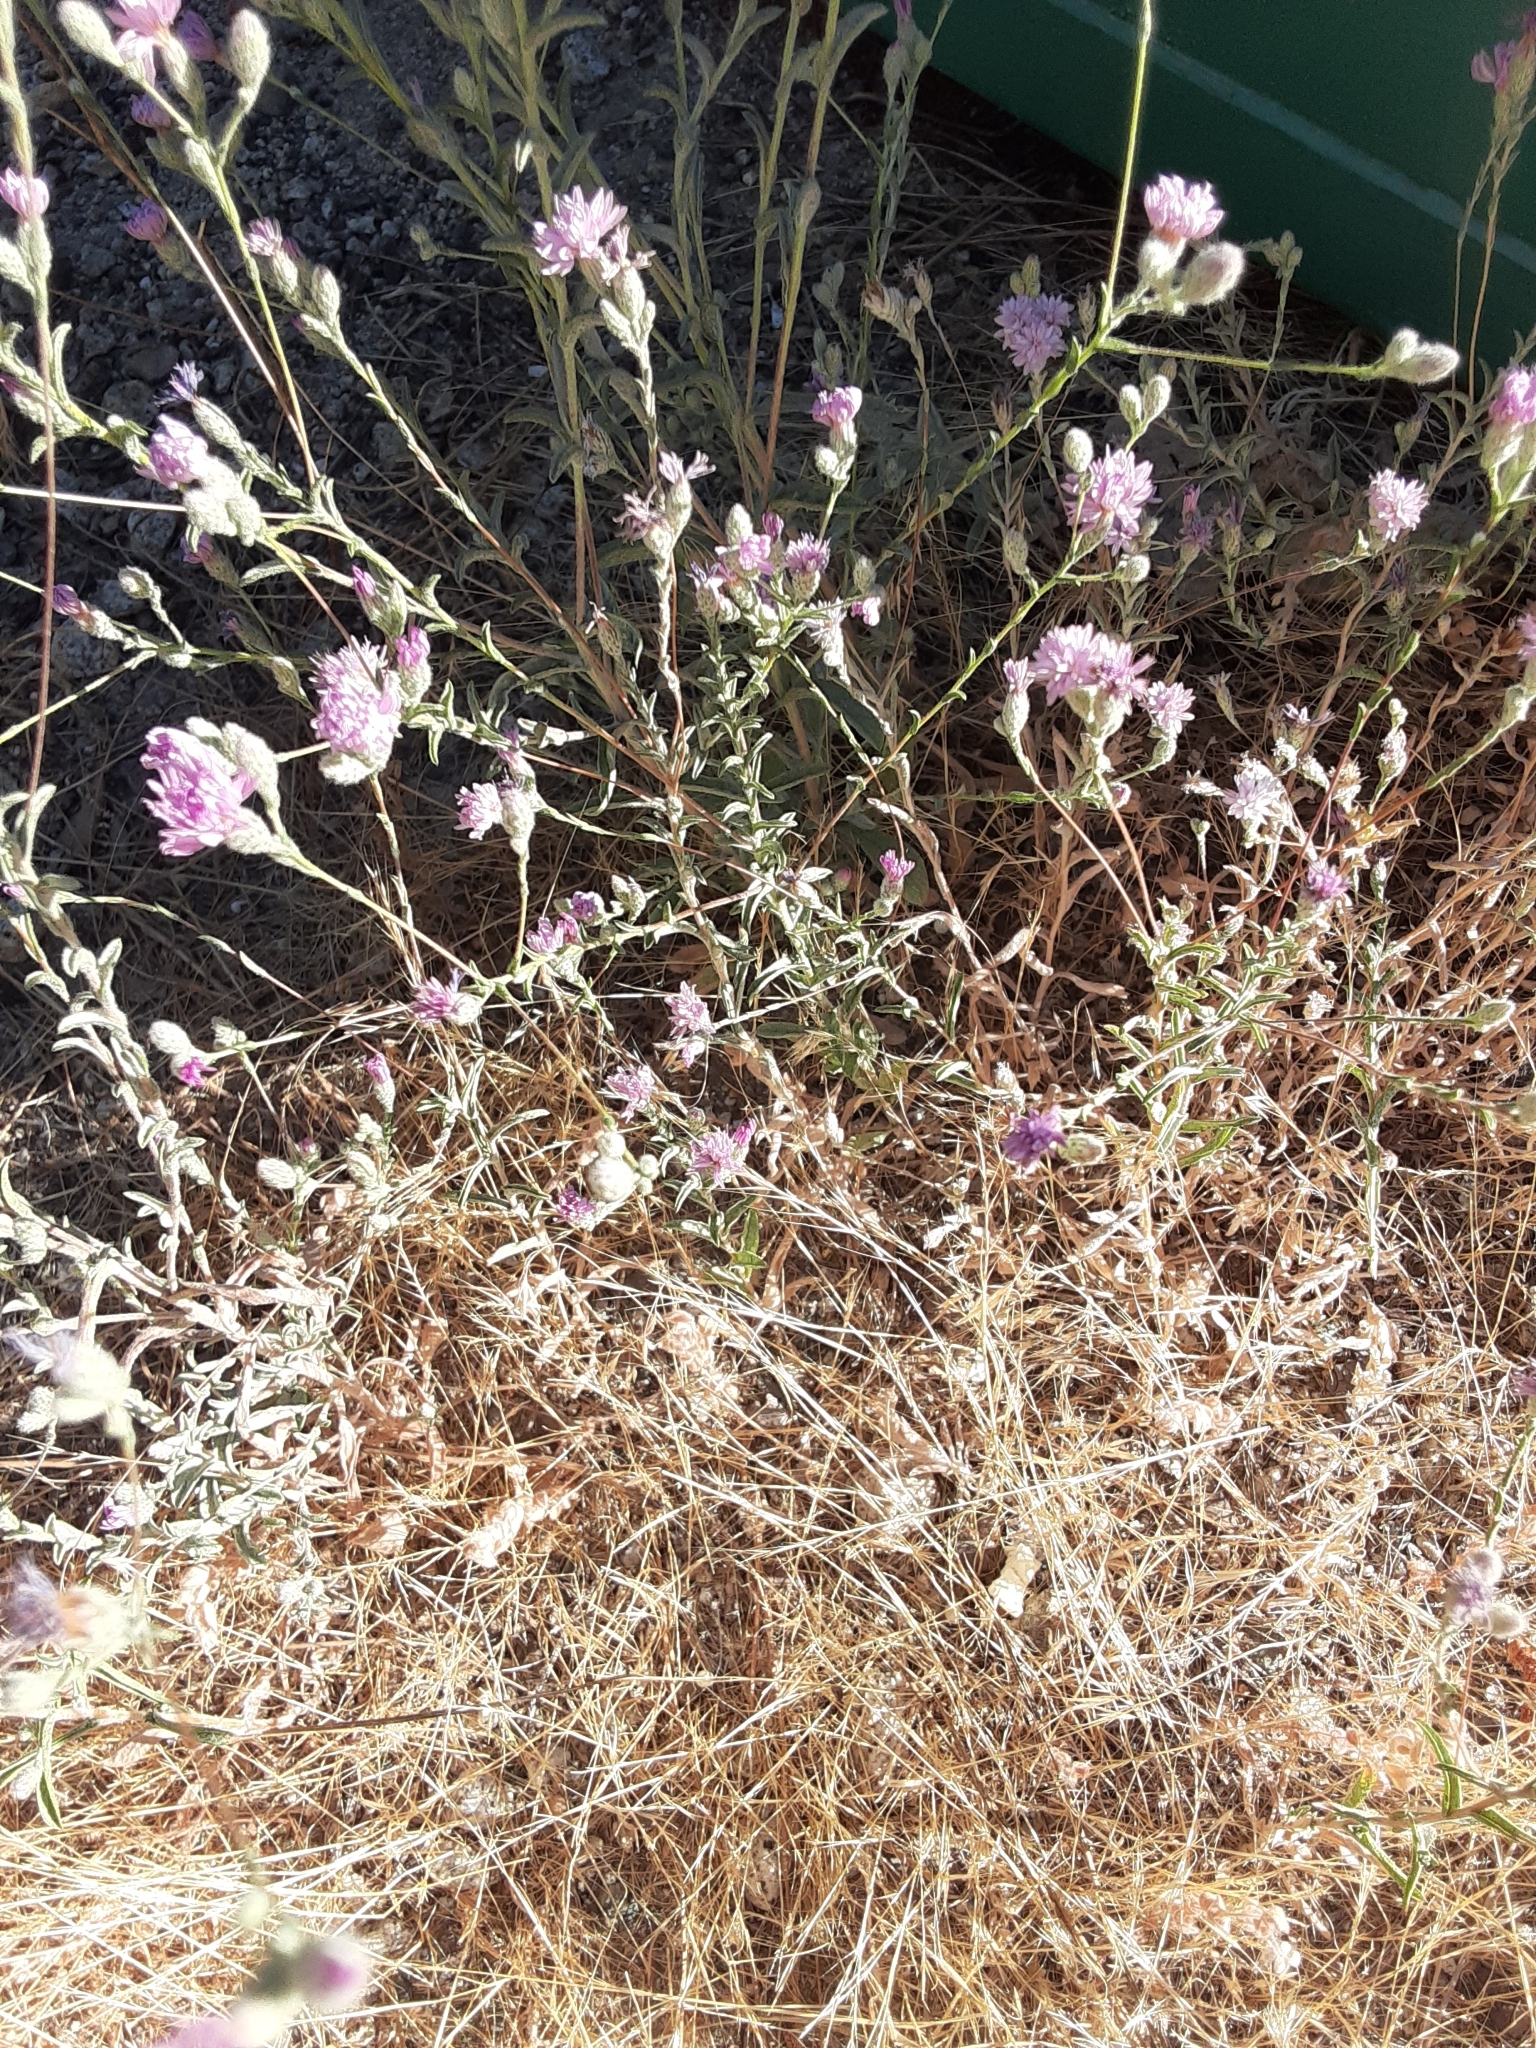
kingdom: Plantae
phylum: Tracheophyta
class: Magnoliopsida
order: Asterales
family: Asteraceae
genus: Lessingia
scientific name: Lessingia leptoclada
